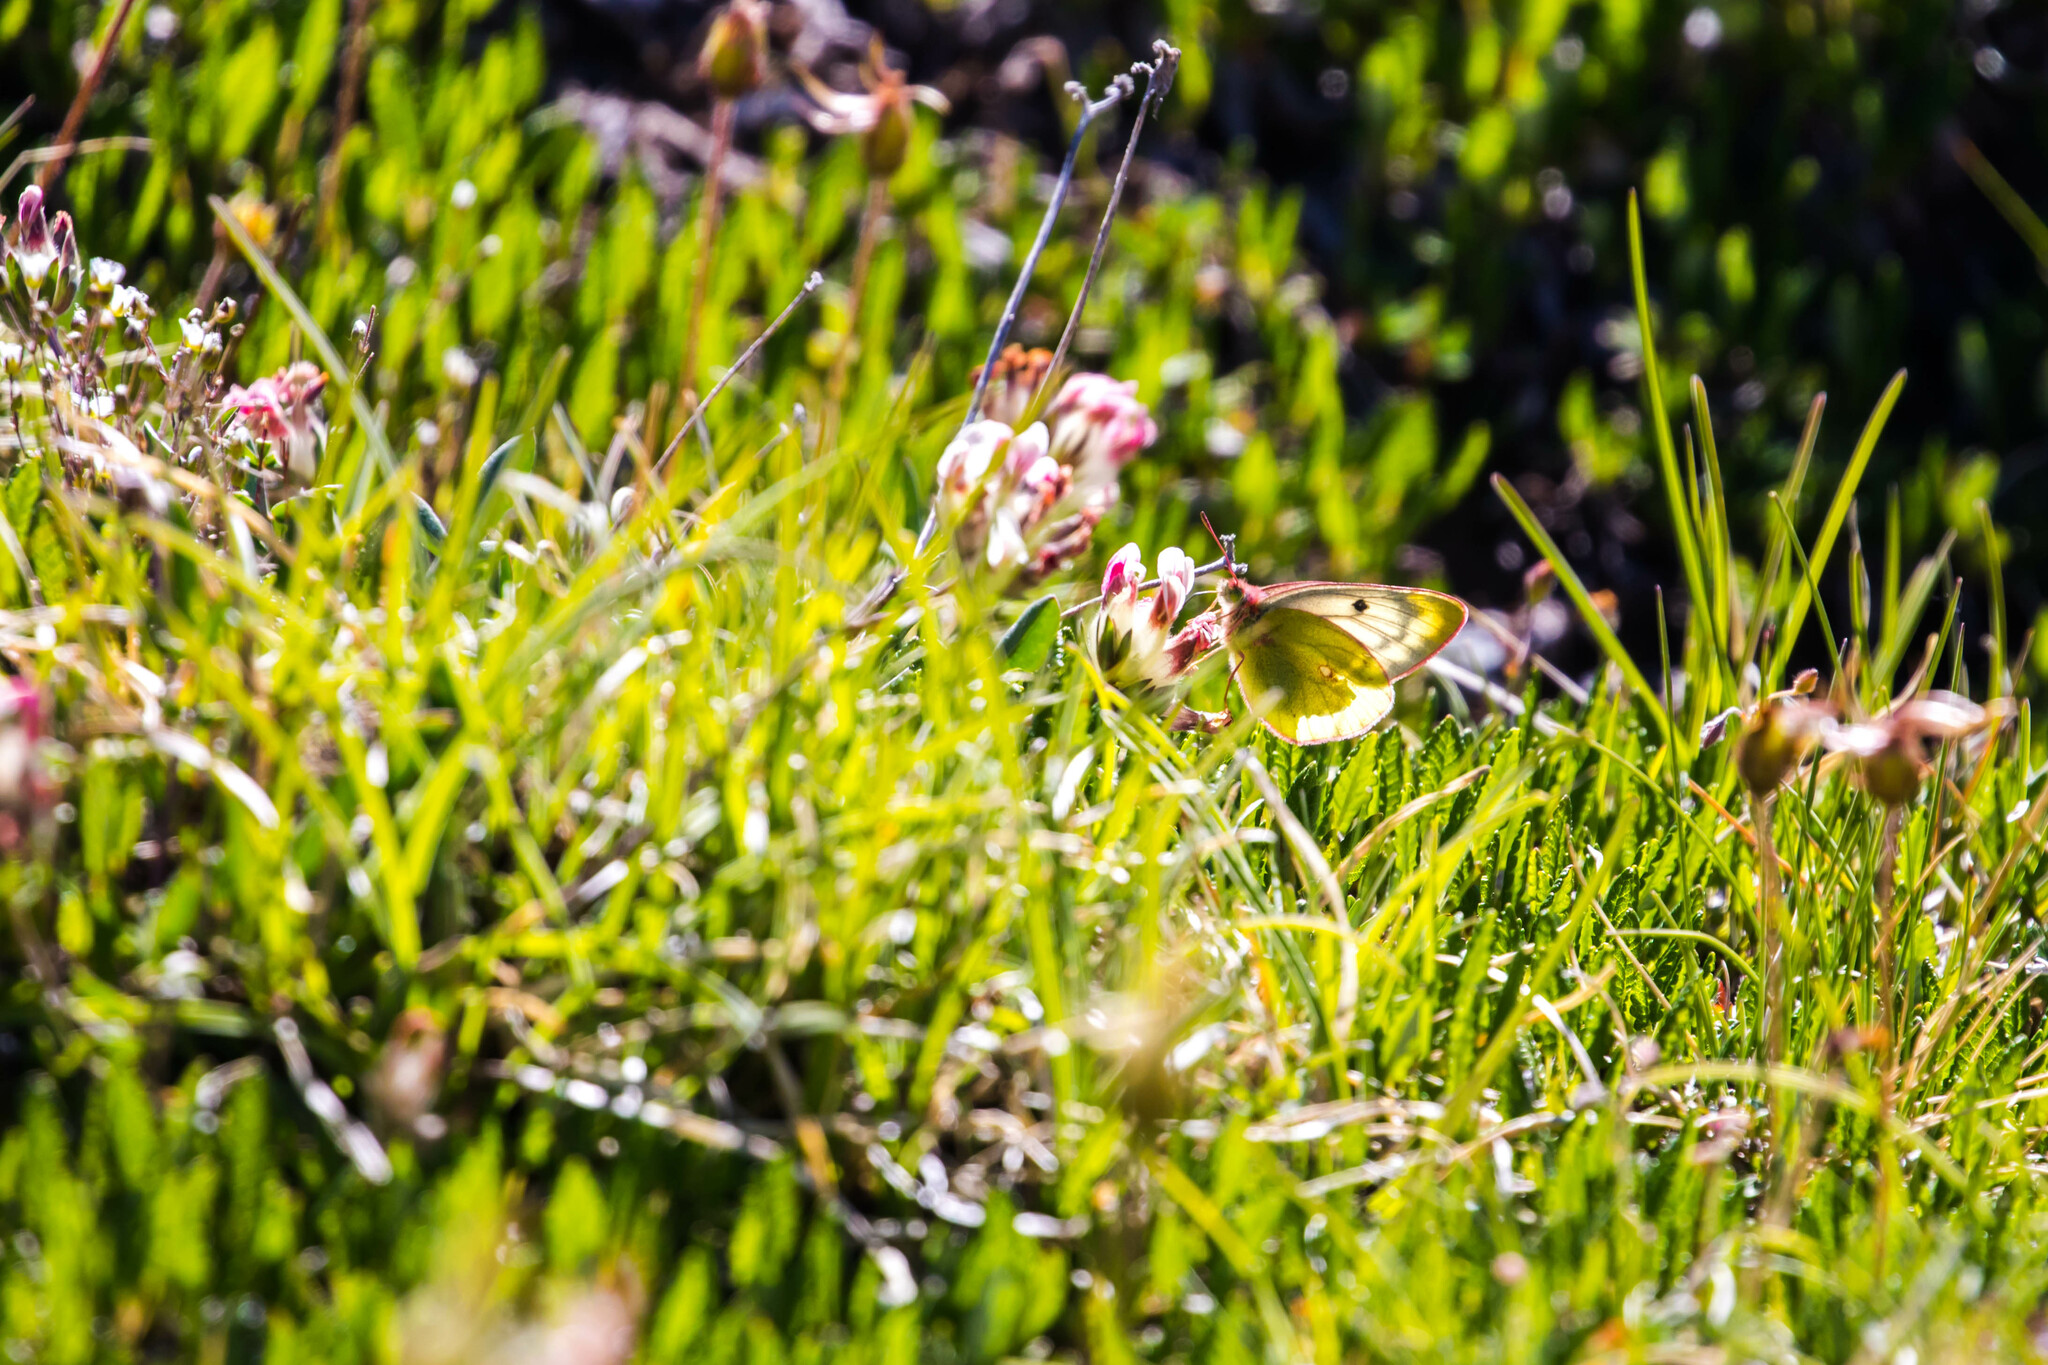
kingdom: Animalia
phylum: Arthropoda
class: Insecta
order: Lepidoptera
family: Pieridae
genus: Colias
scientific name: Colias phicomone
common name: Mountain clouded yellow
